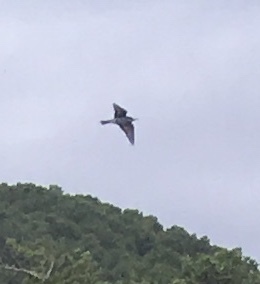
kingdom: Animalia
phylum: Chordata
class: Aves
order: Coraciiformes
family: Meropidae
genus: Merops
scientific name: Merops apiaster
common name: European bee-eater
